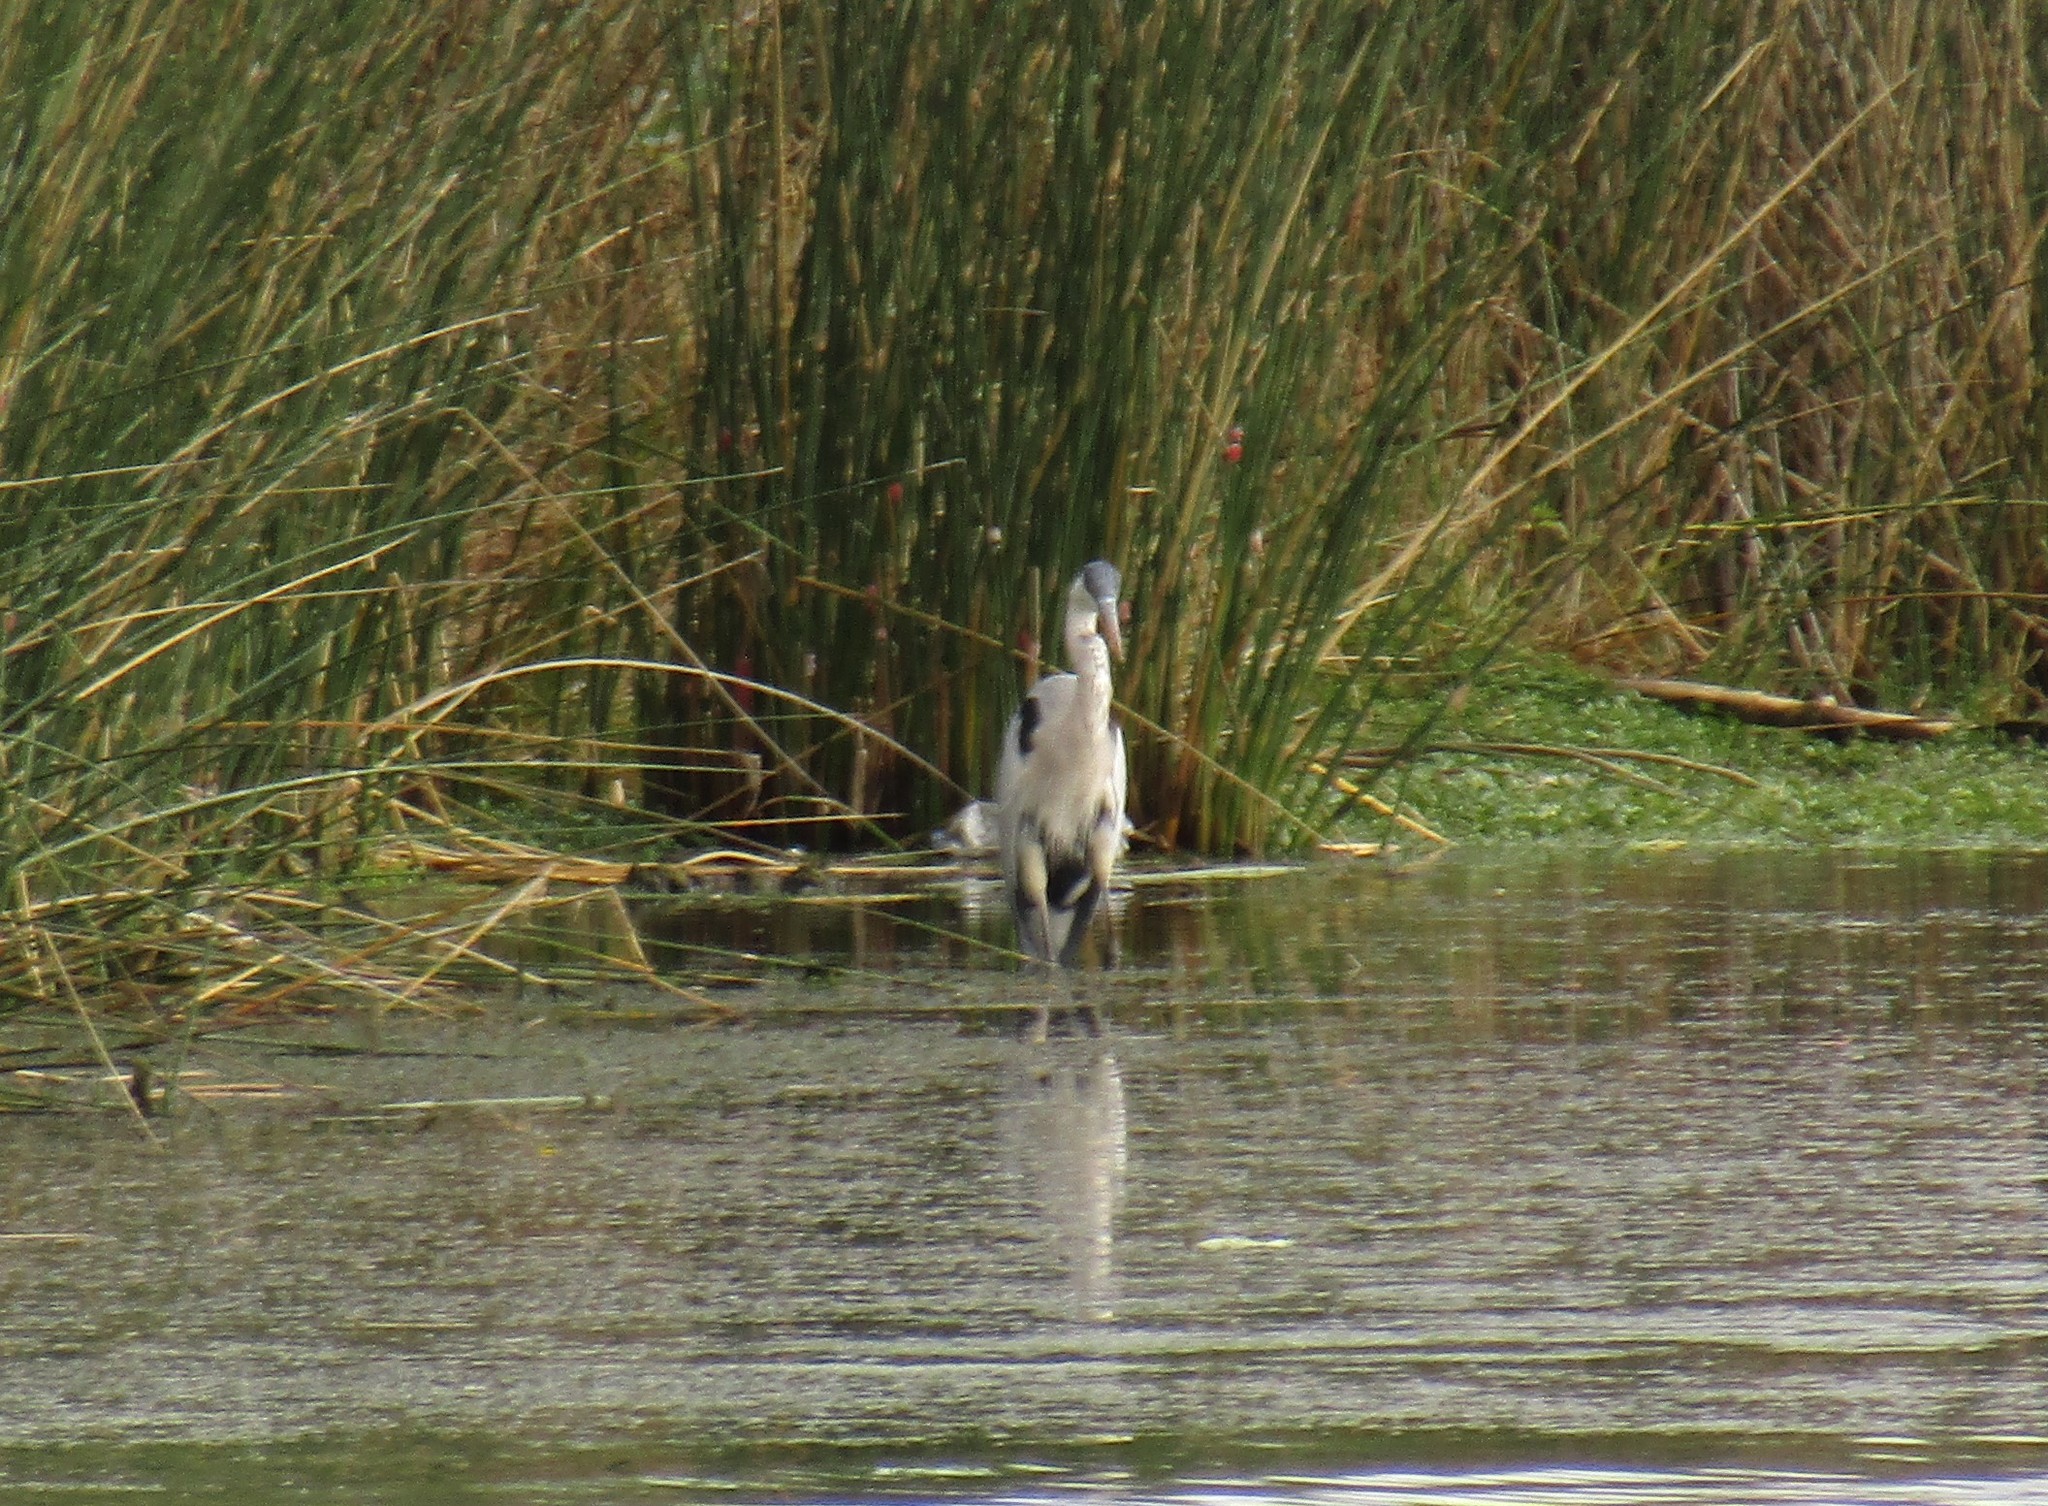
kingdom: Animalia
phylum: Chordata
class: Aves
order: Pelecaniformes
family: Ardeidae
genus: Ardea
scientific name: Ardea cocoi
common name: Cocoi heron
